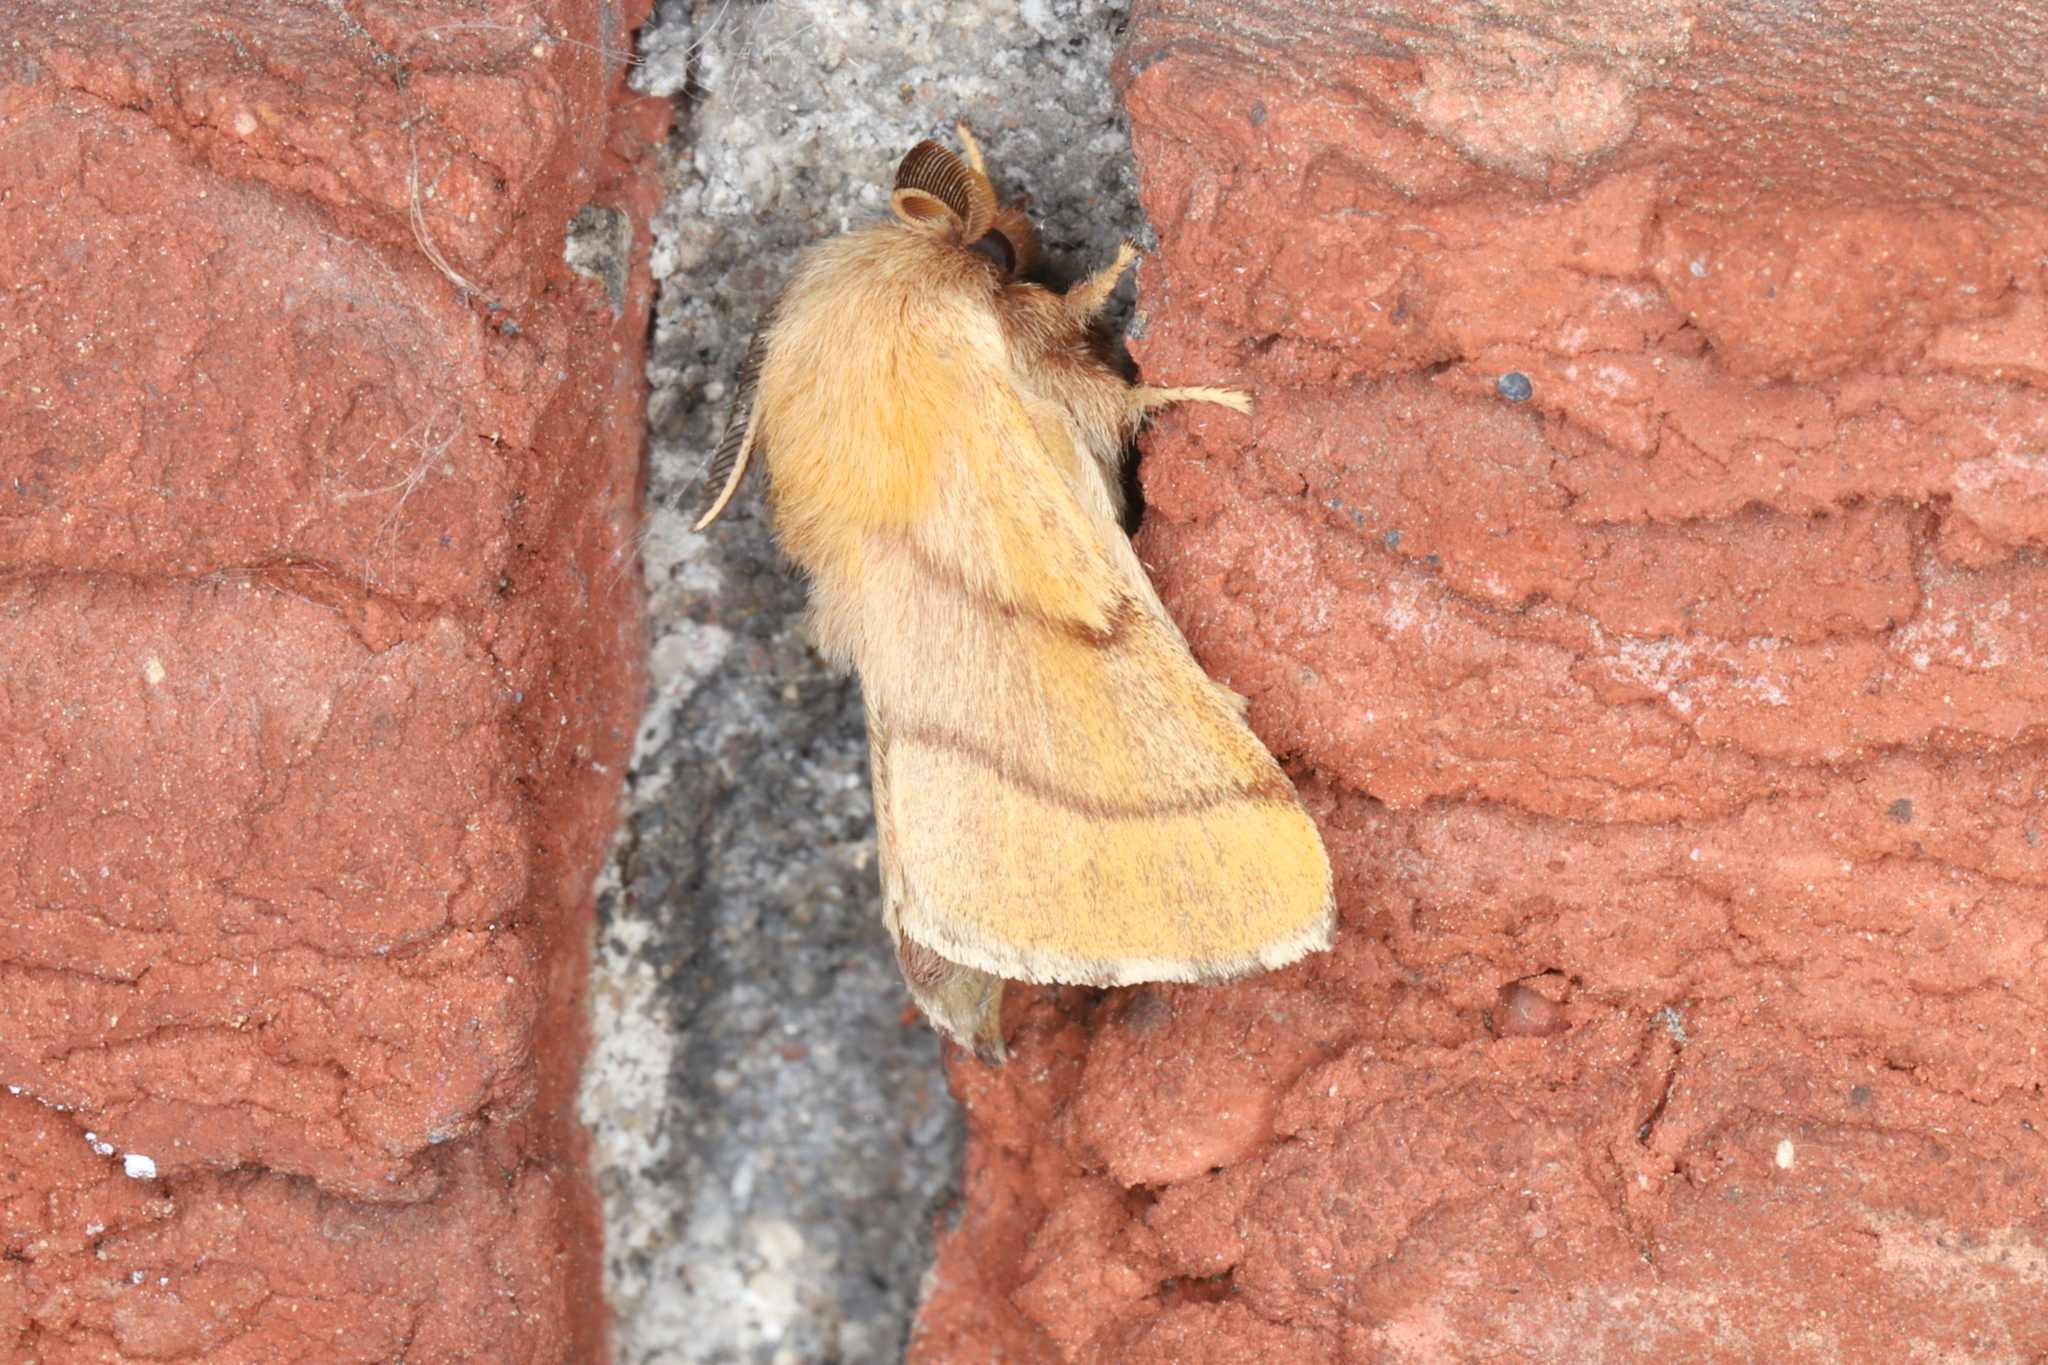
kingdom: Animalia
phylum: Arthropoda
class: Insecta
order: Lepidoptera
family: Lasiocampidae
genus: Malacosoma
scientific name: Malacosoma disstria
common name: Forest tent caterpillar
